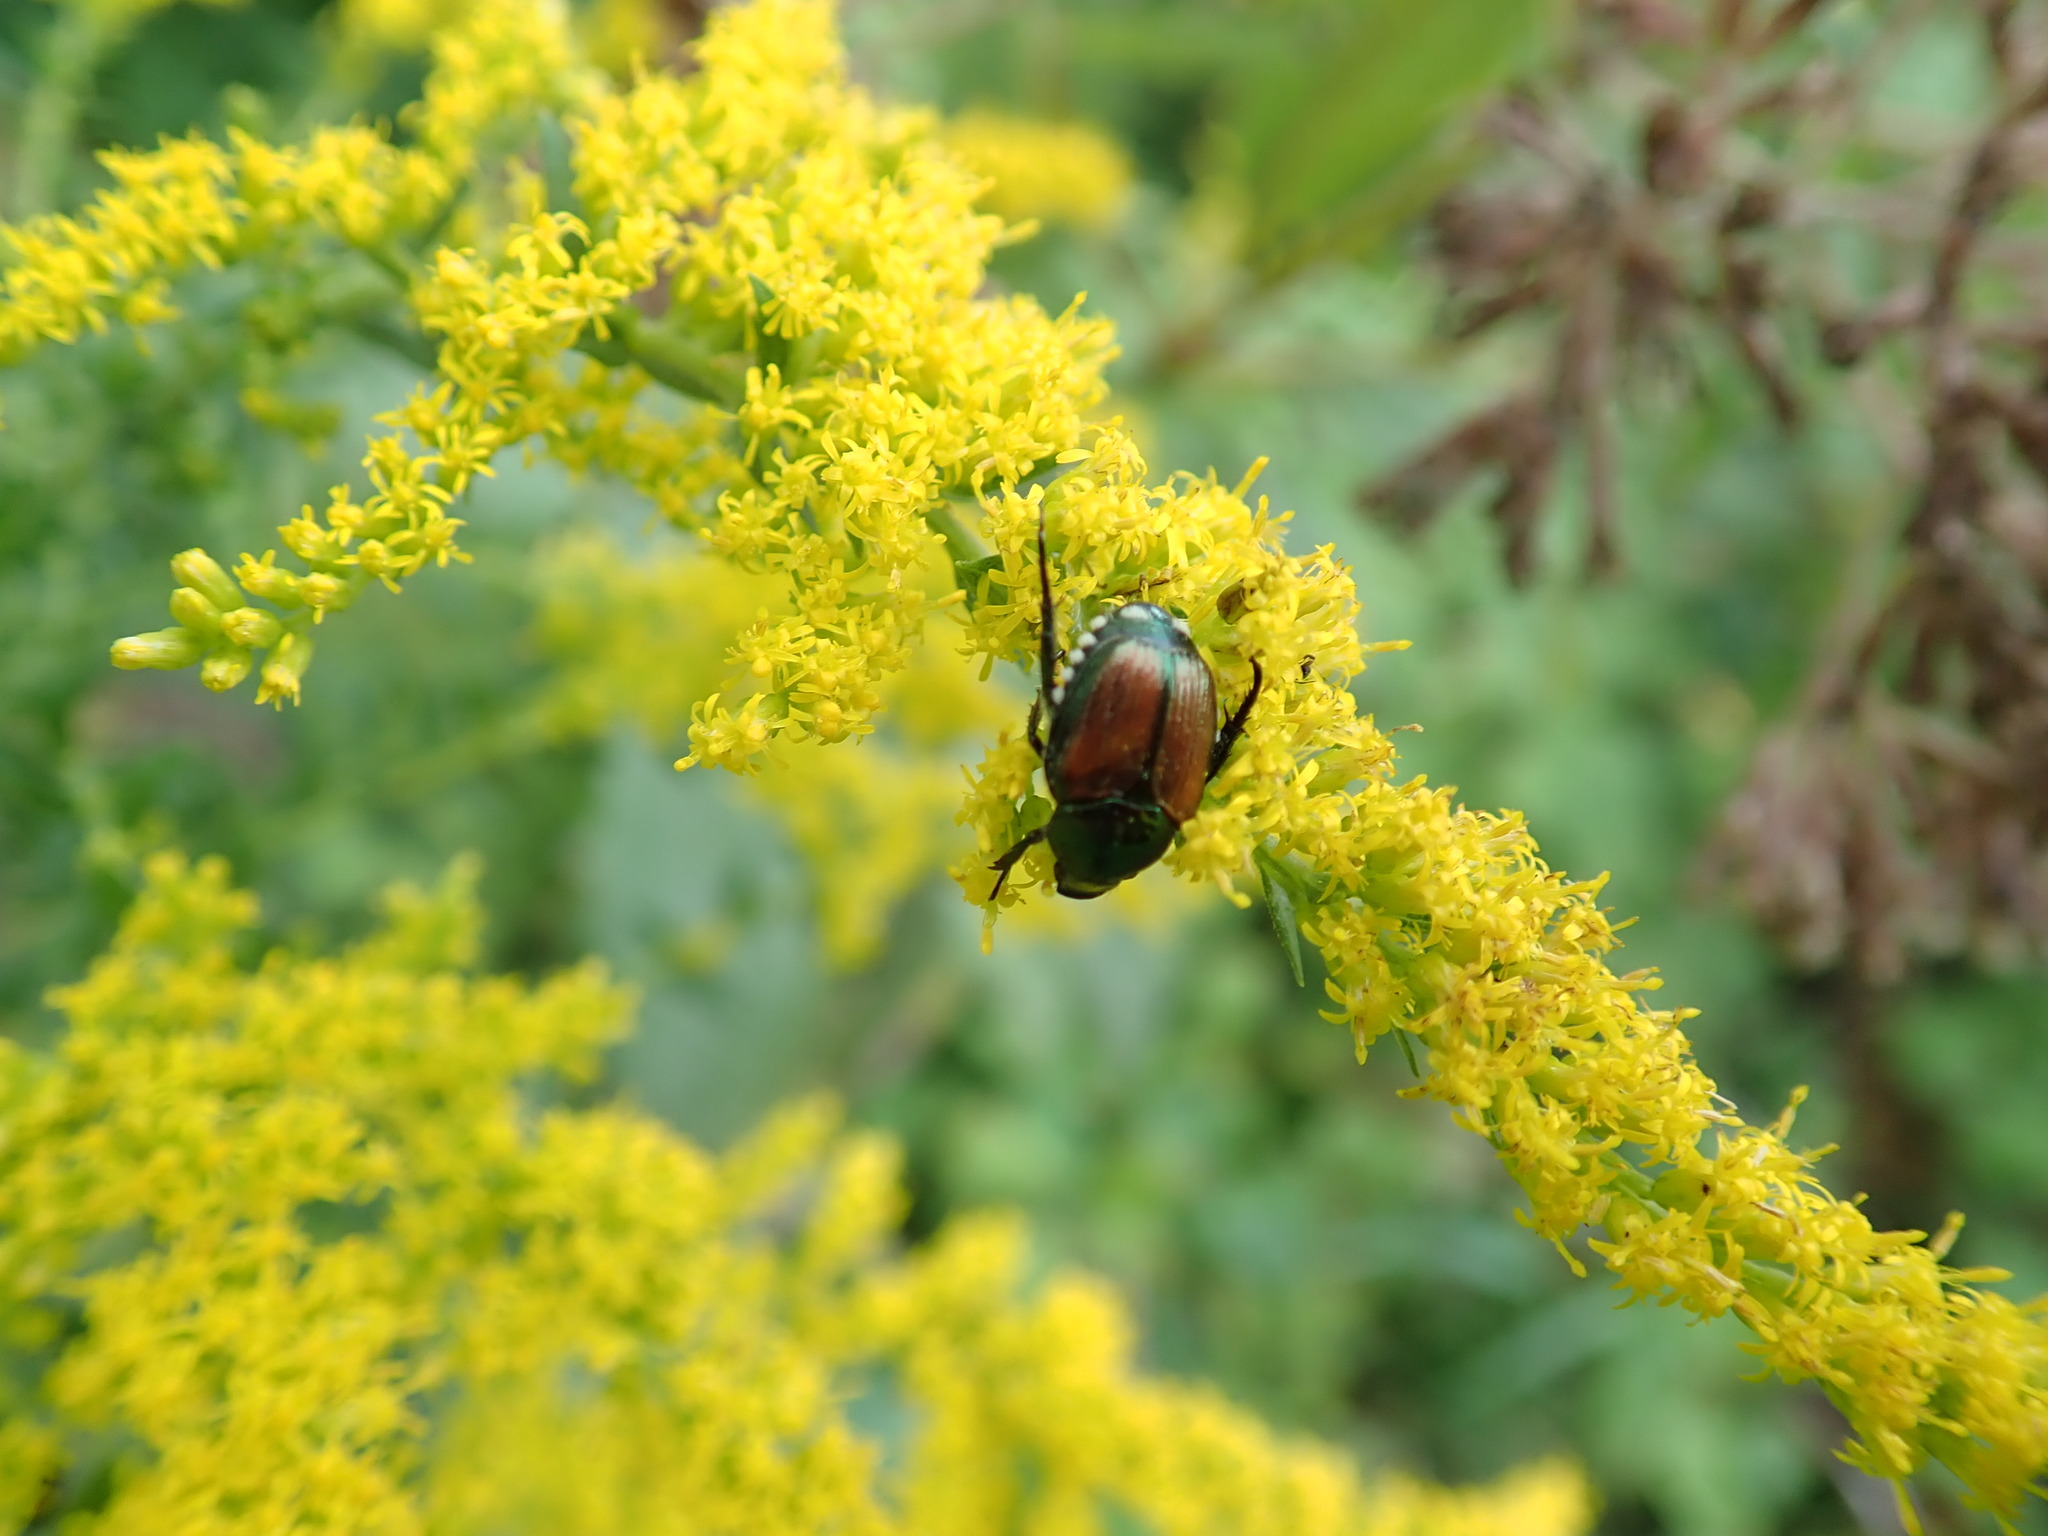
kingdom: Animalia
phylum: Arthropoda
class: Insecta
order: Coleoptera
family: Scarabaeidae
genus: Popillia
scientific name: Popillia japonica
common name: Japanese beetle
